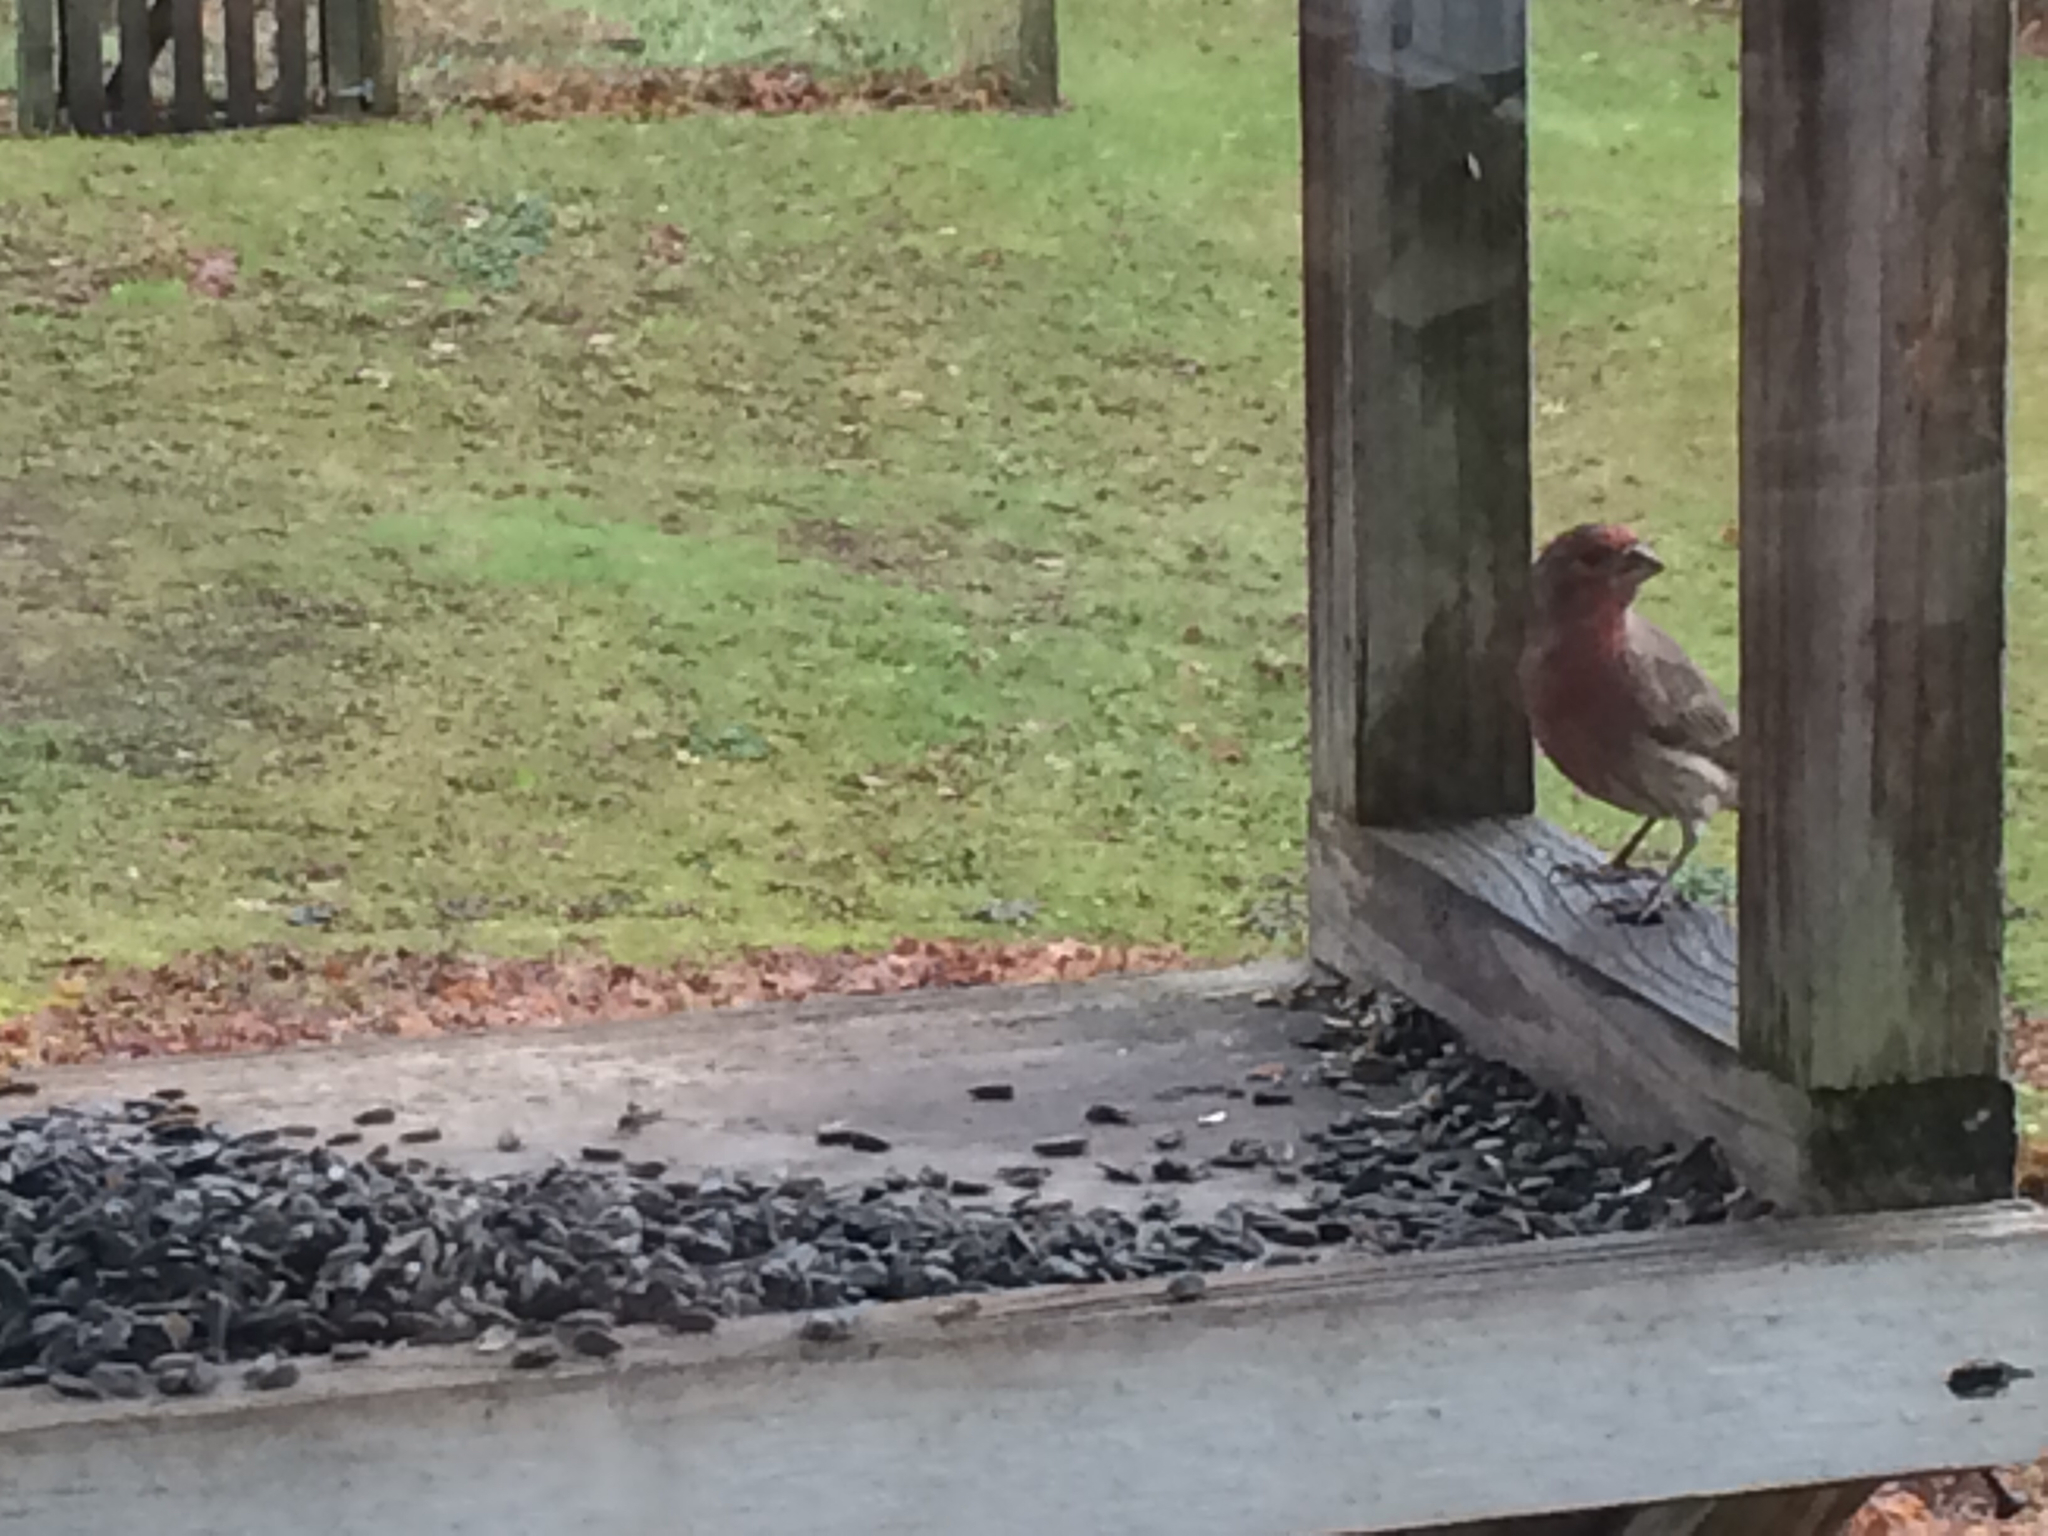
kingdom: Animalia
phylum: Chordata
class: Aves
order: Passeriformes
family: Fringillidae
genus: Haemorhous
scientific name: Haemorhous mexicanus
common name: House finch
